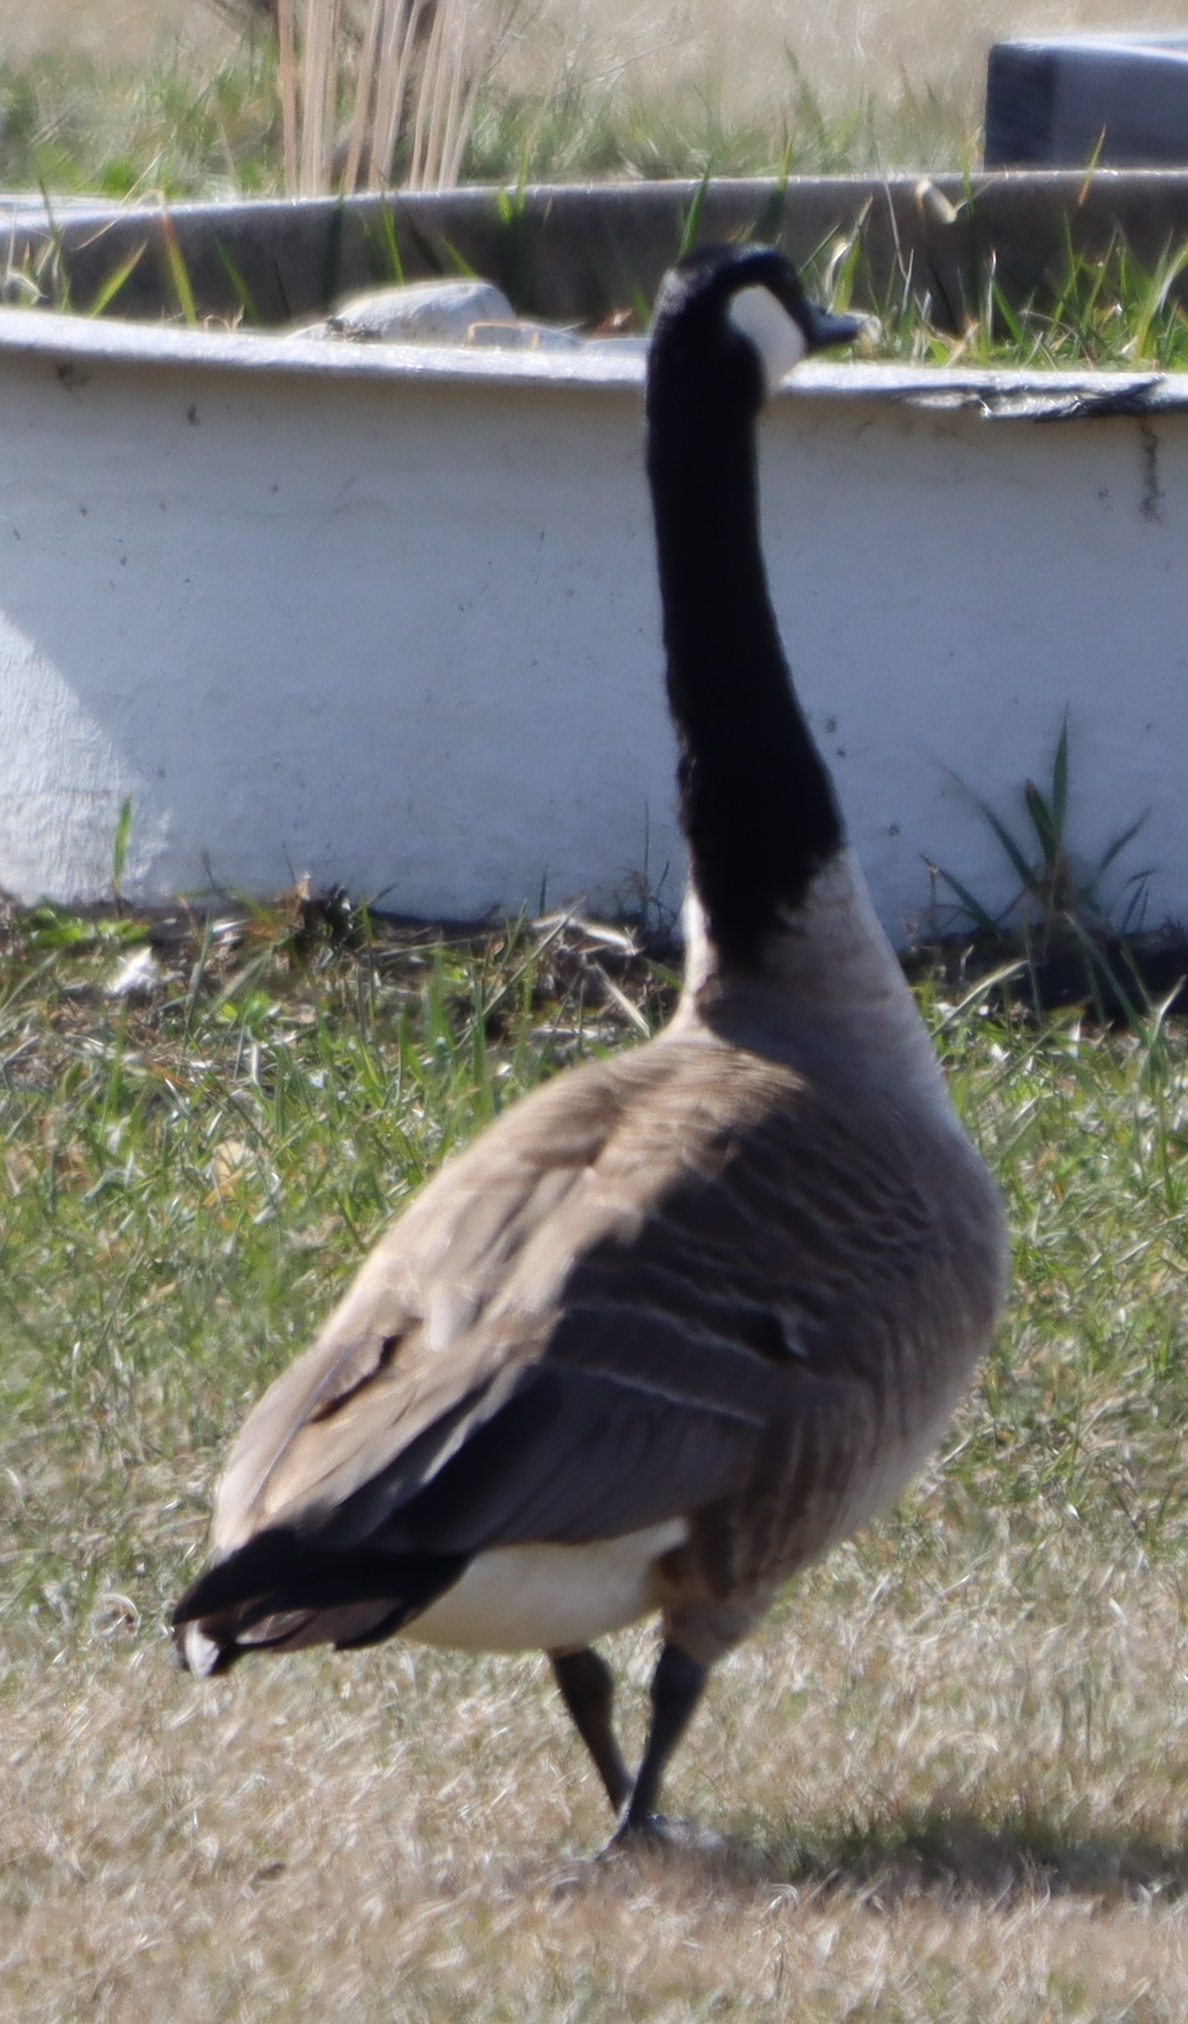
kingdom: Animalia
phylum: Chordata
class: Aves
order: Anseriformes
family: Anatidae
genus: Branta
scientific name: Branta canadensis
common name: Canada goose
